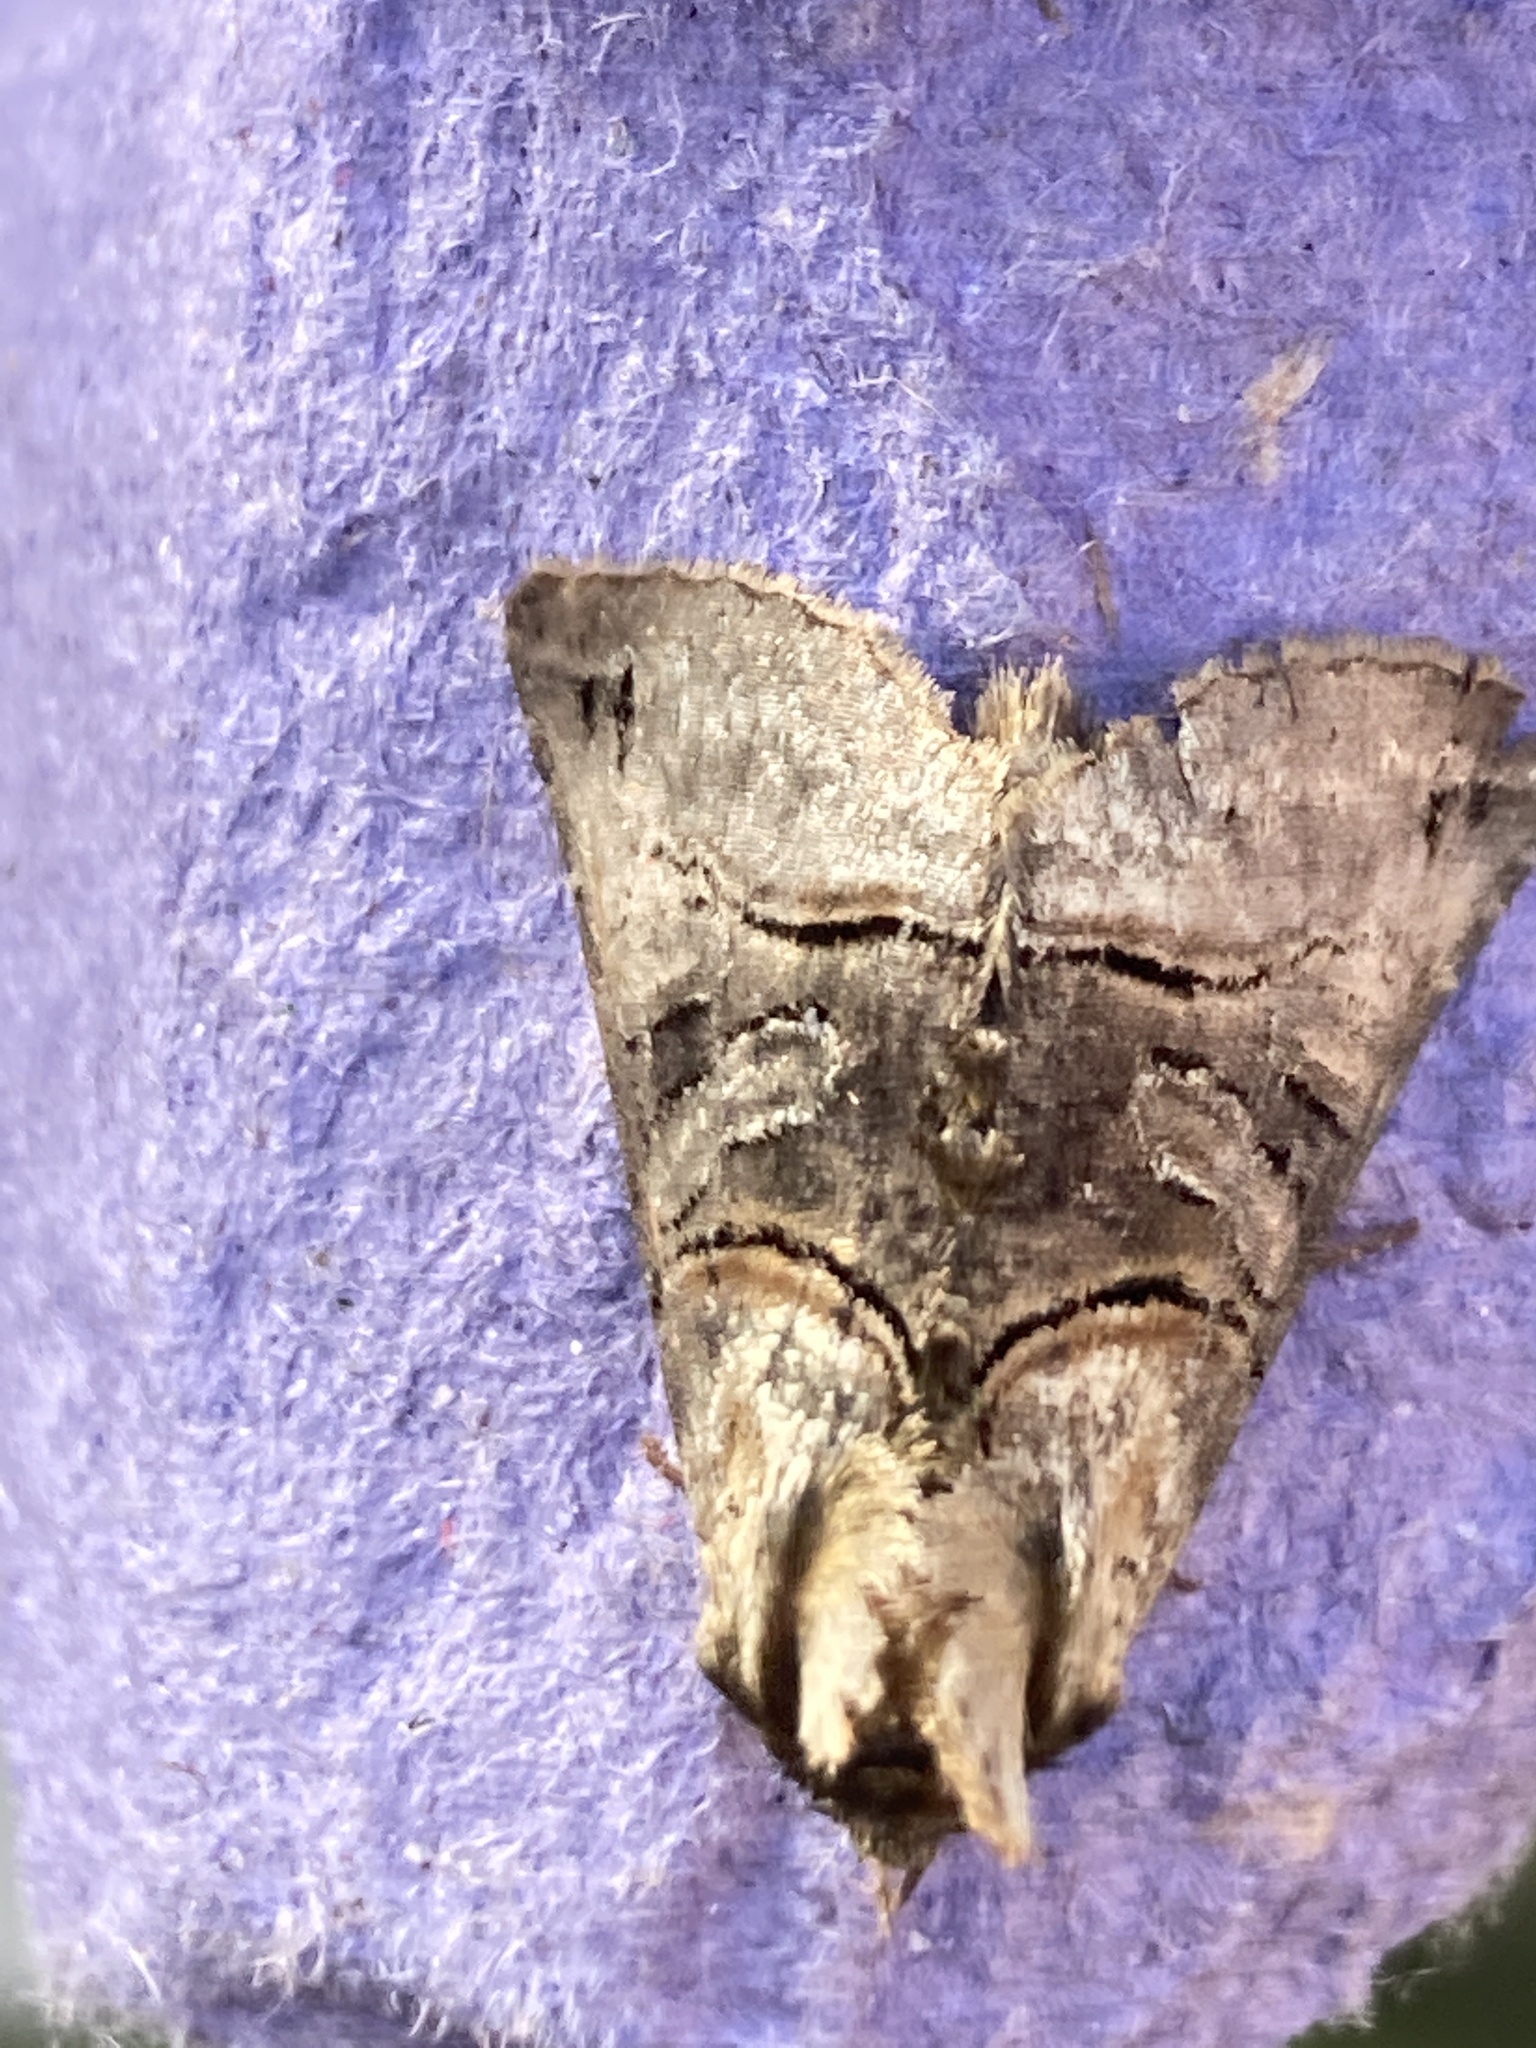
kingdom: Animalia
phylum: Arthropoda
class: Insecta
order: Lepidoptera
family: Noctuidae
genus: Abrostola
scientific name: Abrostola tripartita
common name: Spectacle
